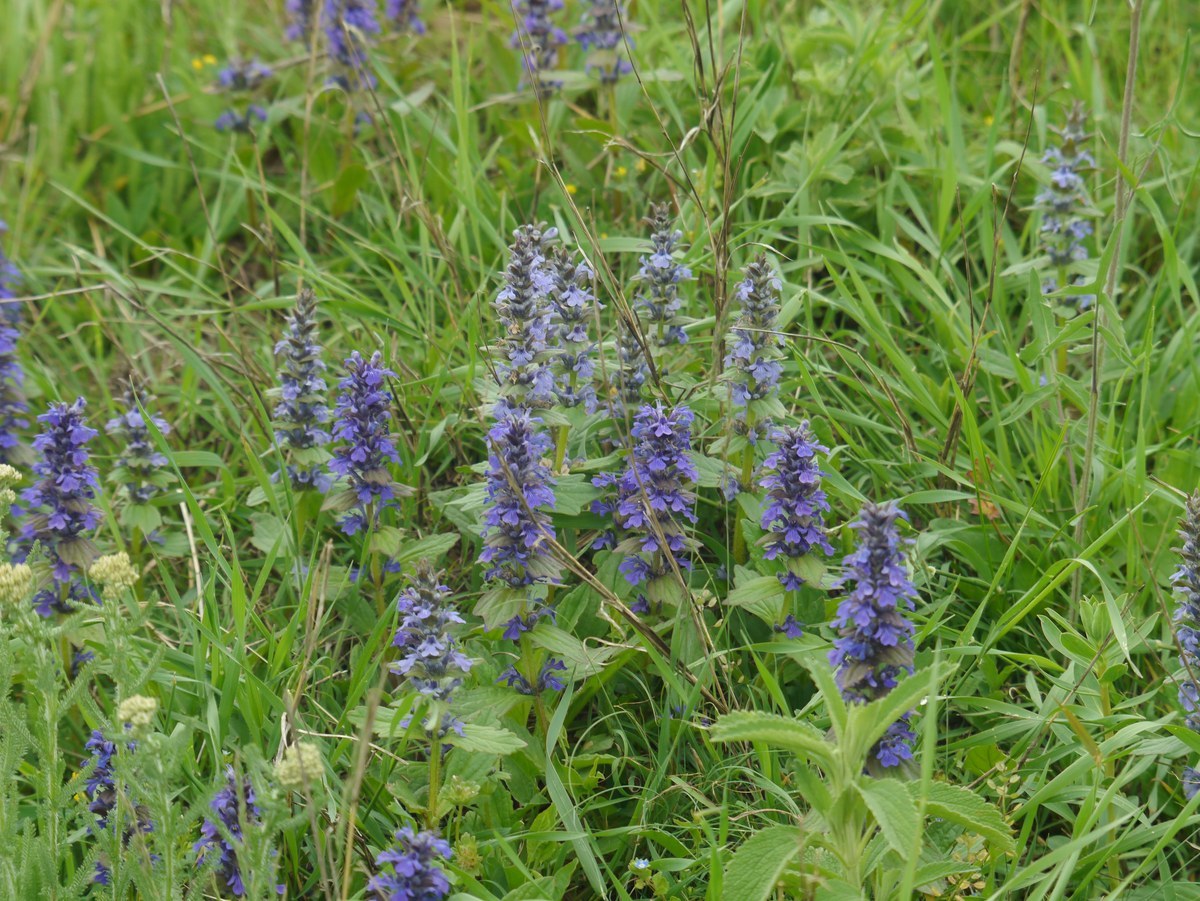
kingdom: Plantae
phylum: Tracheophyta
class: Magnoliopsida
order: Lamiales
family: Lamiaceae
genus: Ajuga
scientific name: Ajuga genevensis
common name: Blue bugle
